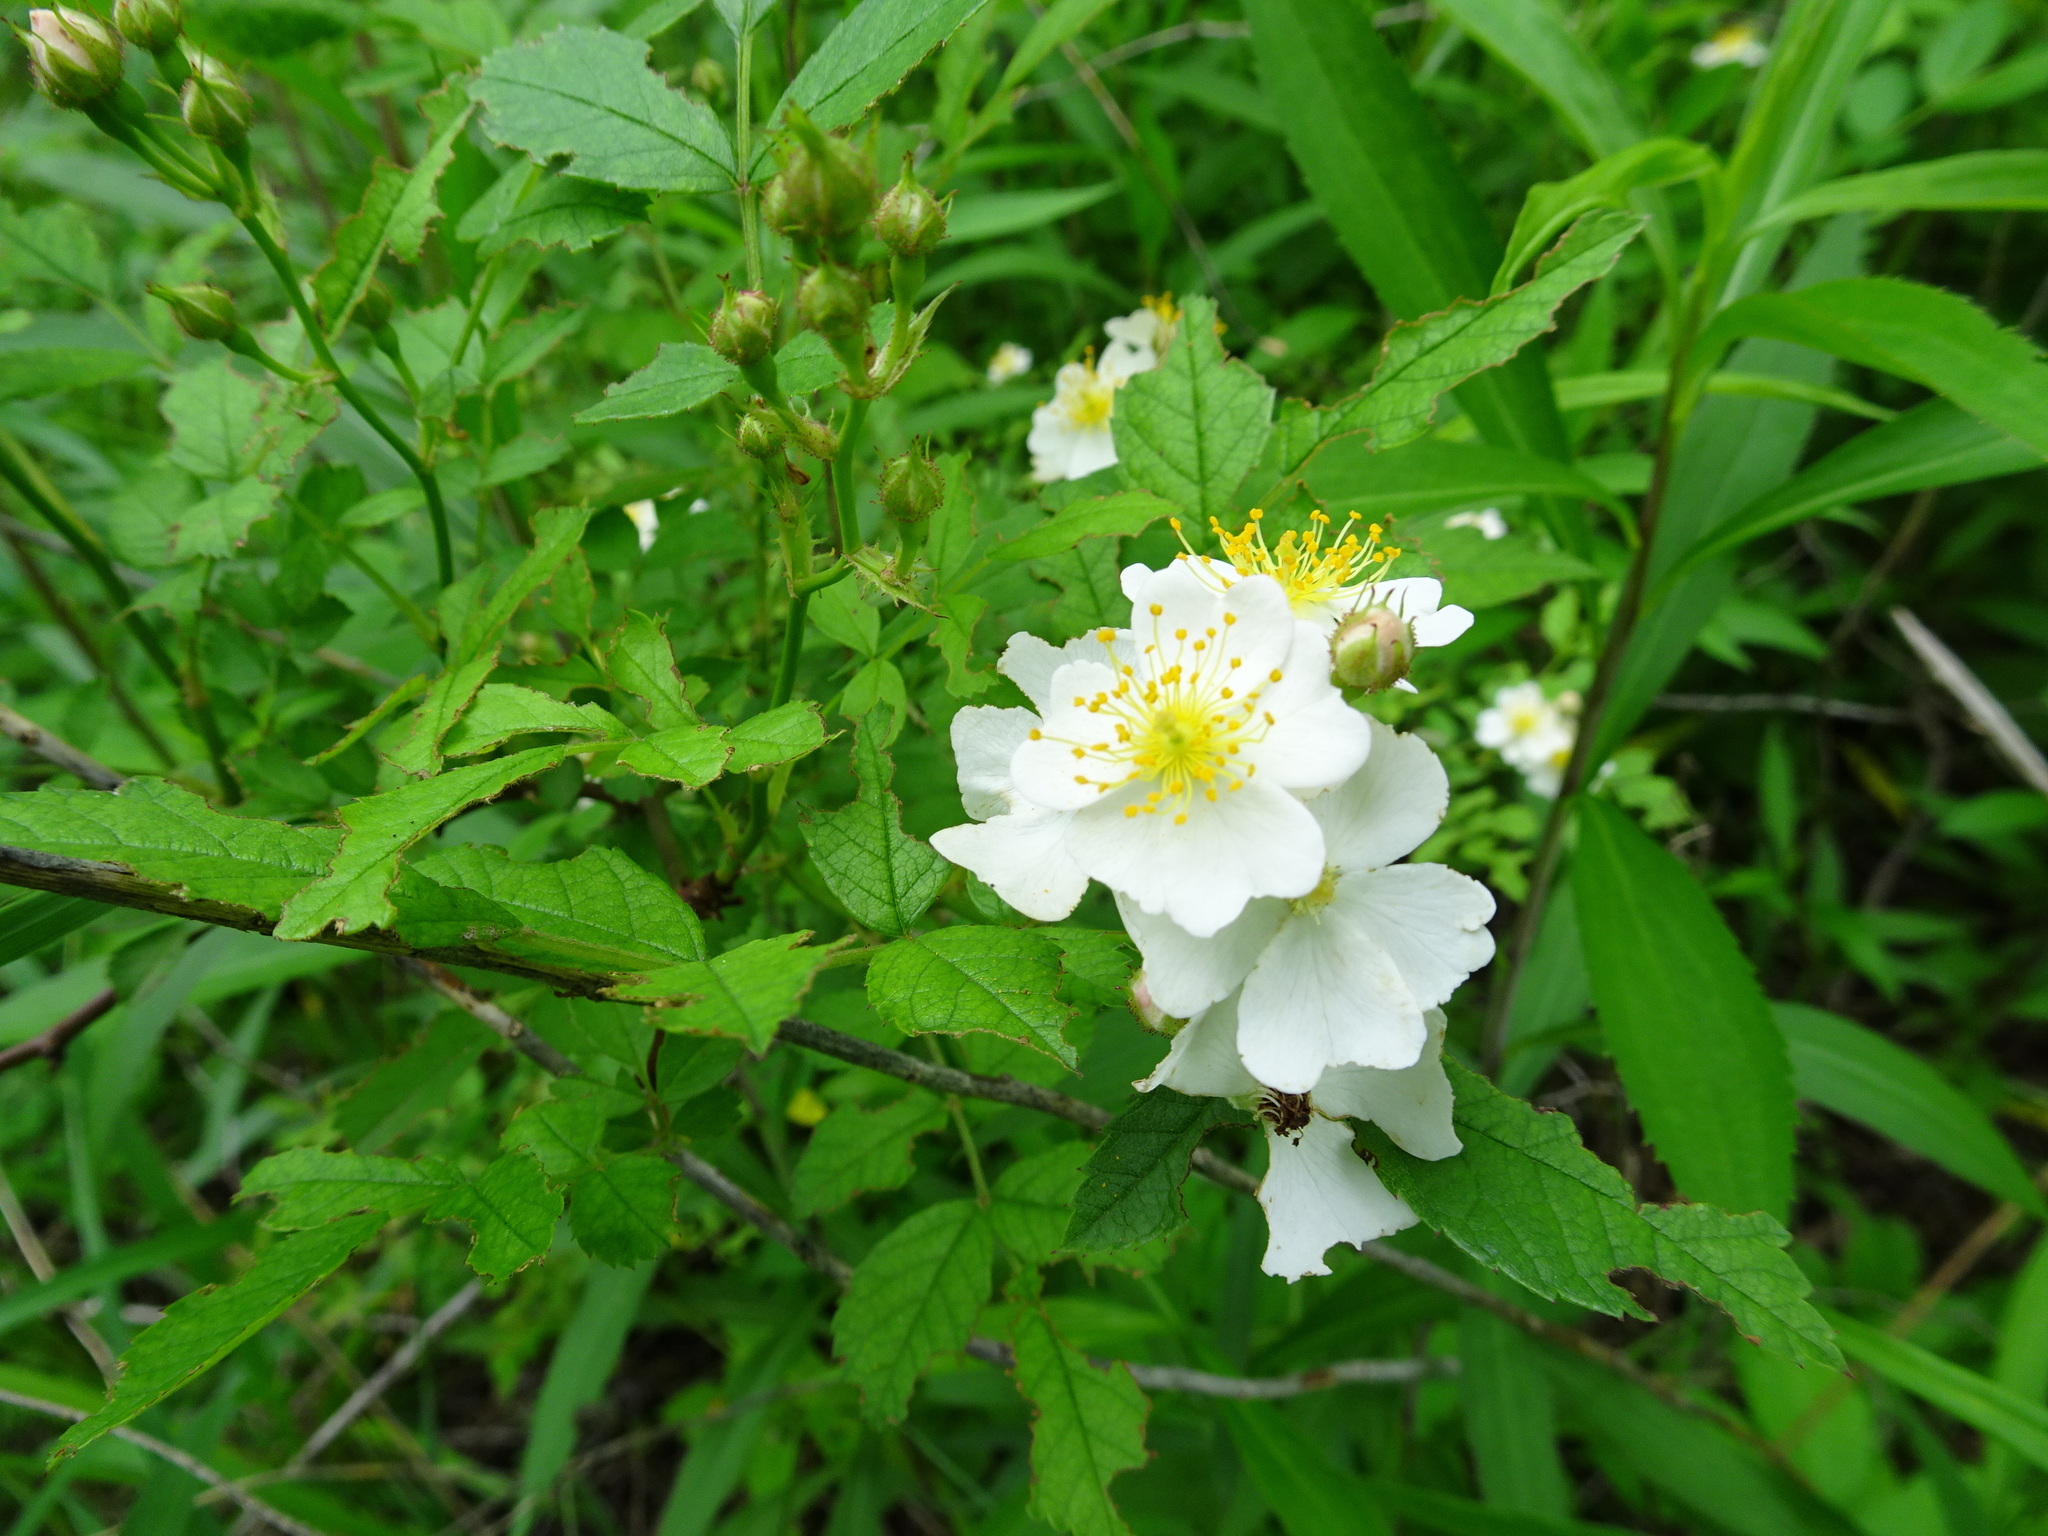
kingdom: Plantae
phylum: Tracheophyta
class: Magnoliopsida
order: Rosales
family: Rosaceae
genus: Rosa
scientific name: Rosa multiflora
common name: Multiflora rose
